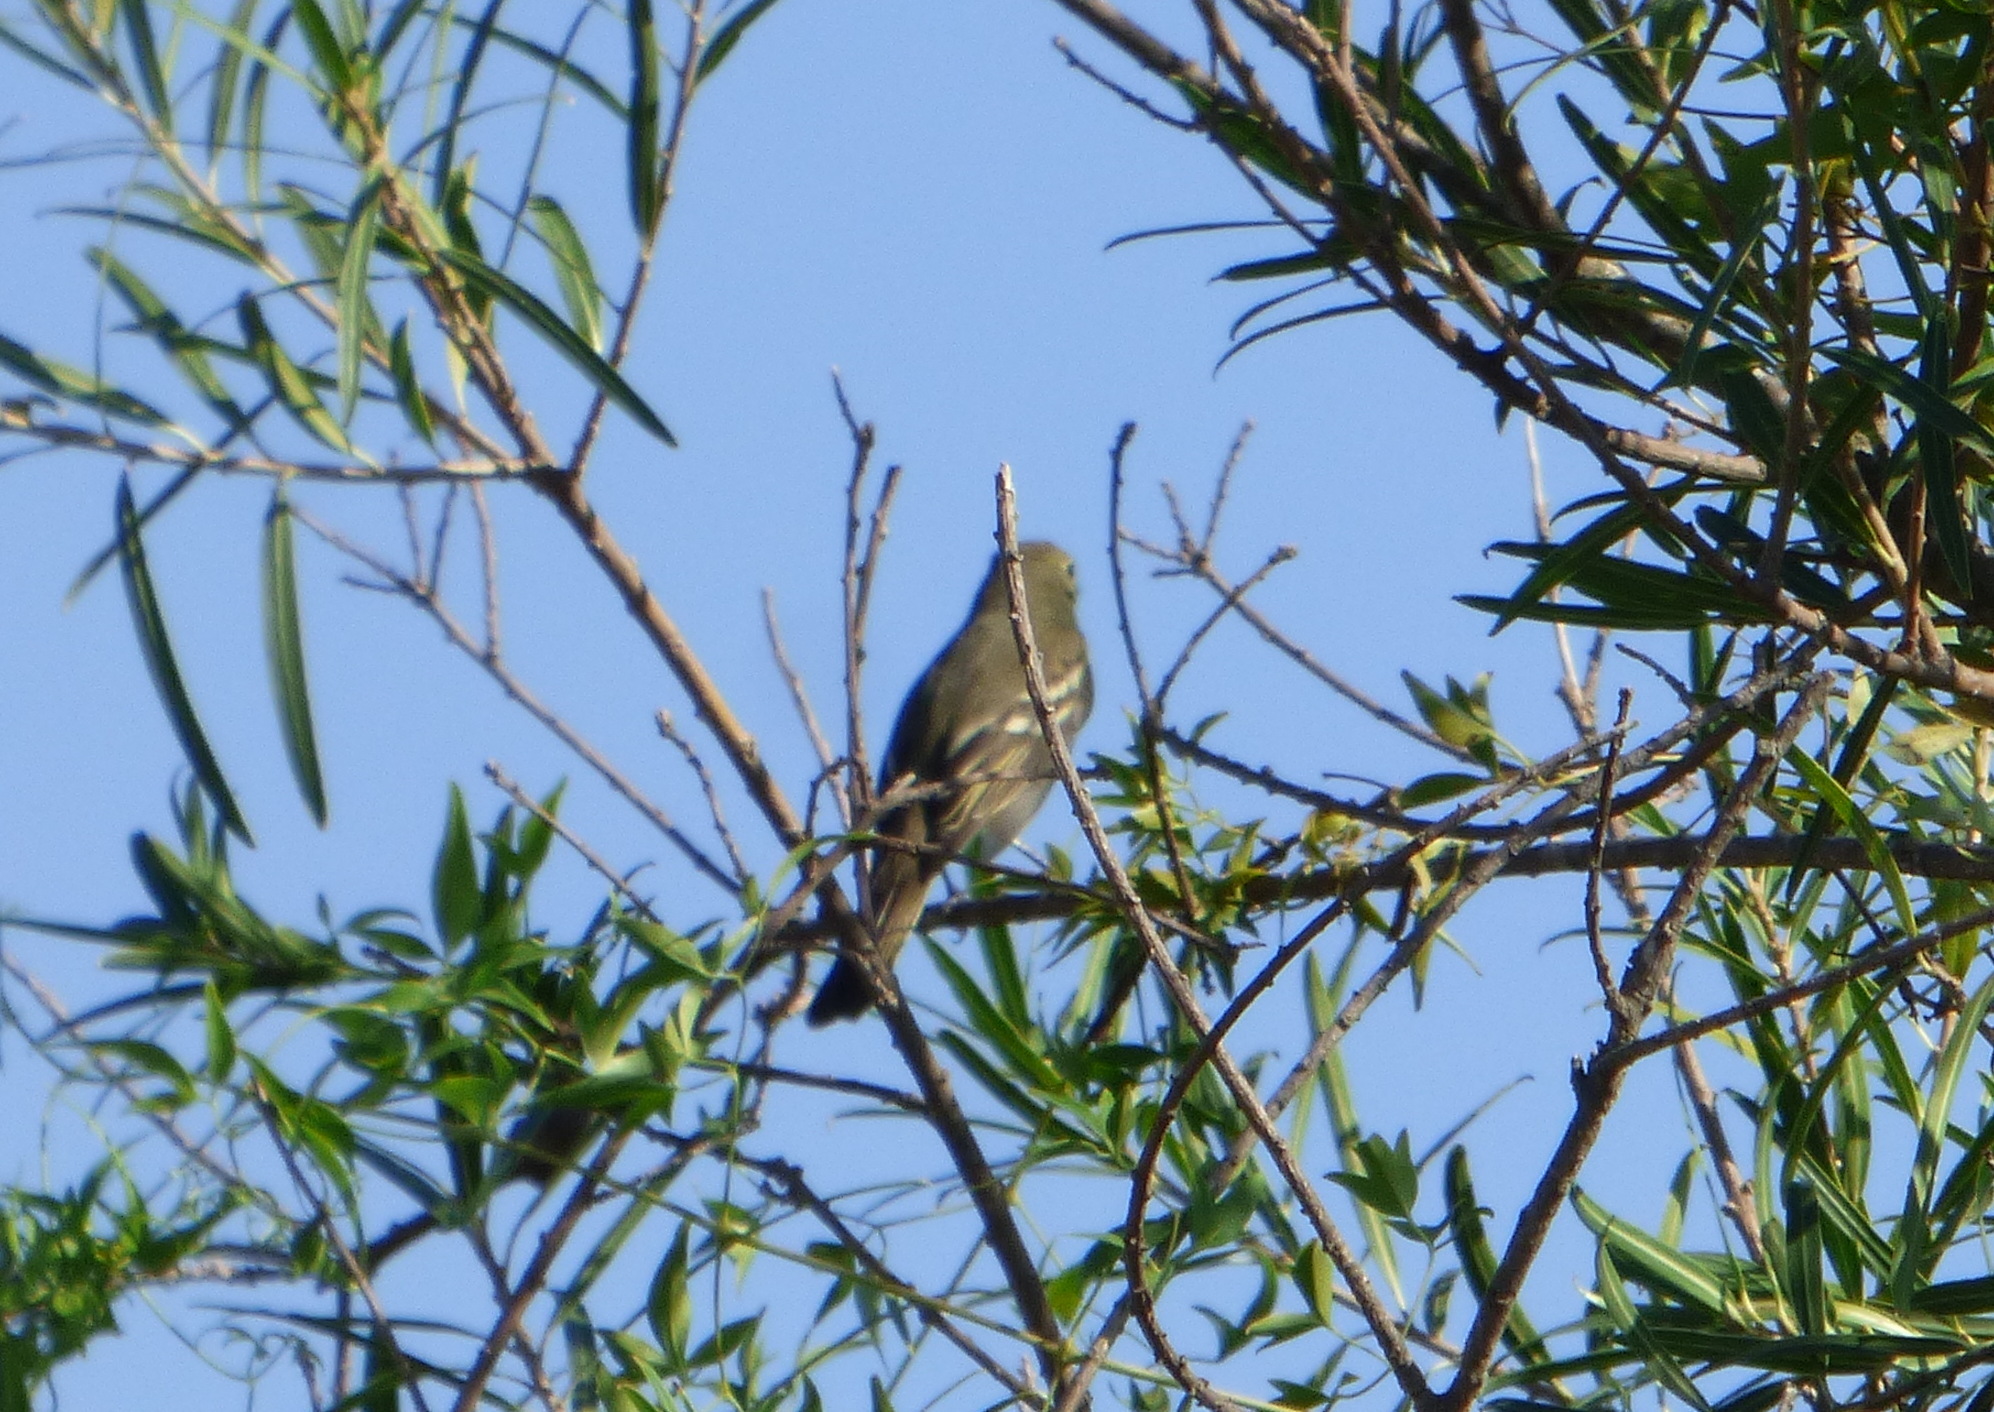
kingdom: Animalia
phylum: Chordata
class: Aves
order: Passeriformes
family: Tyrannidae
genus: Elaenia
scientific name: Elaenia albiceps
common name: White-crested elaenia
